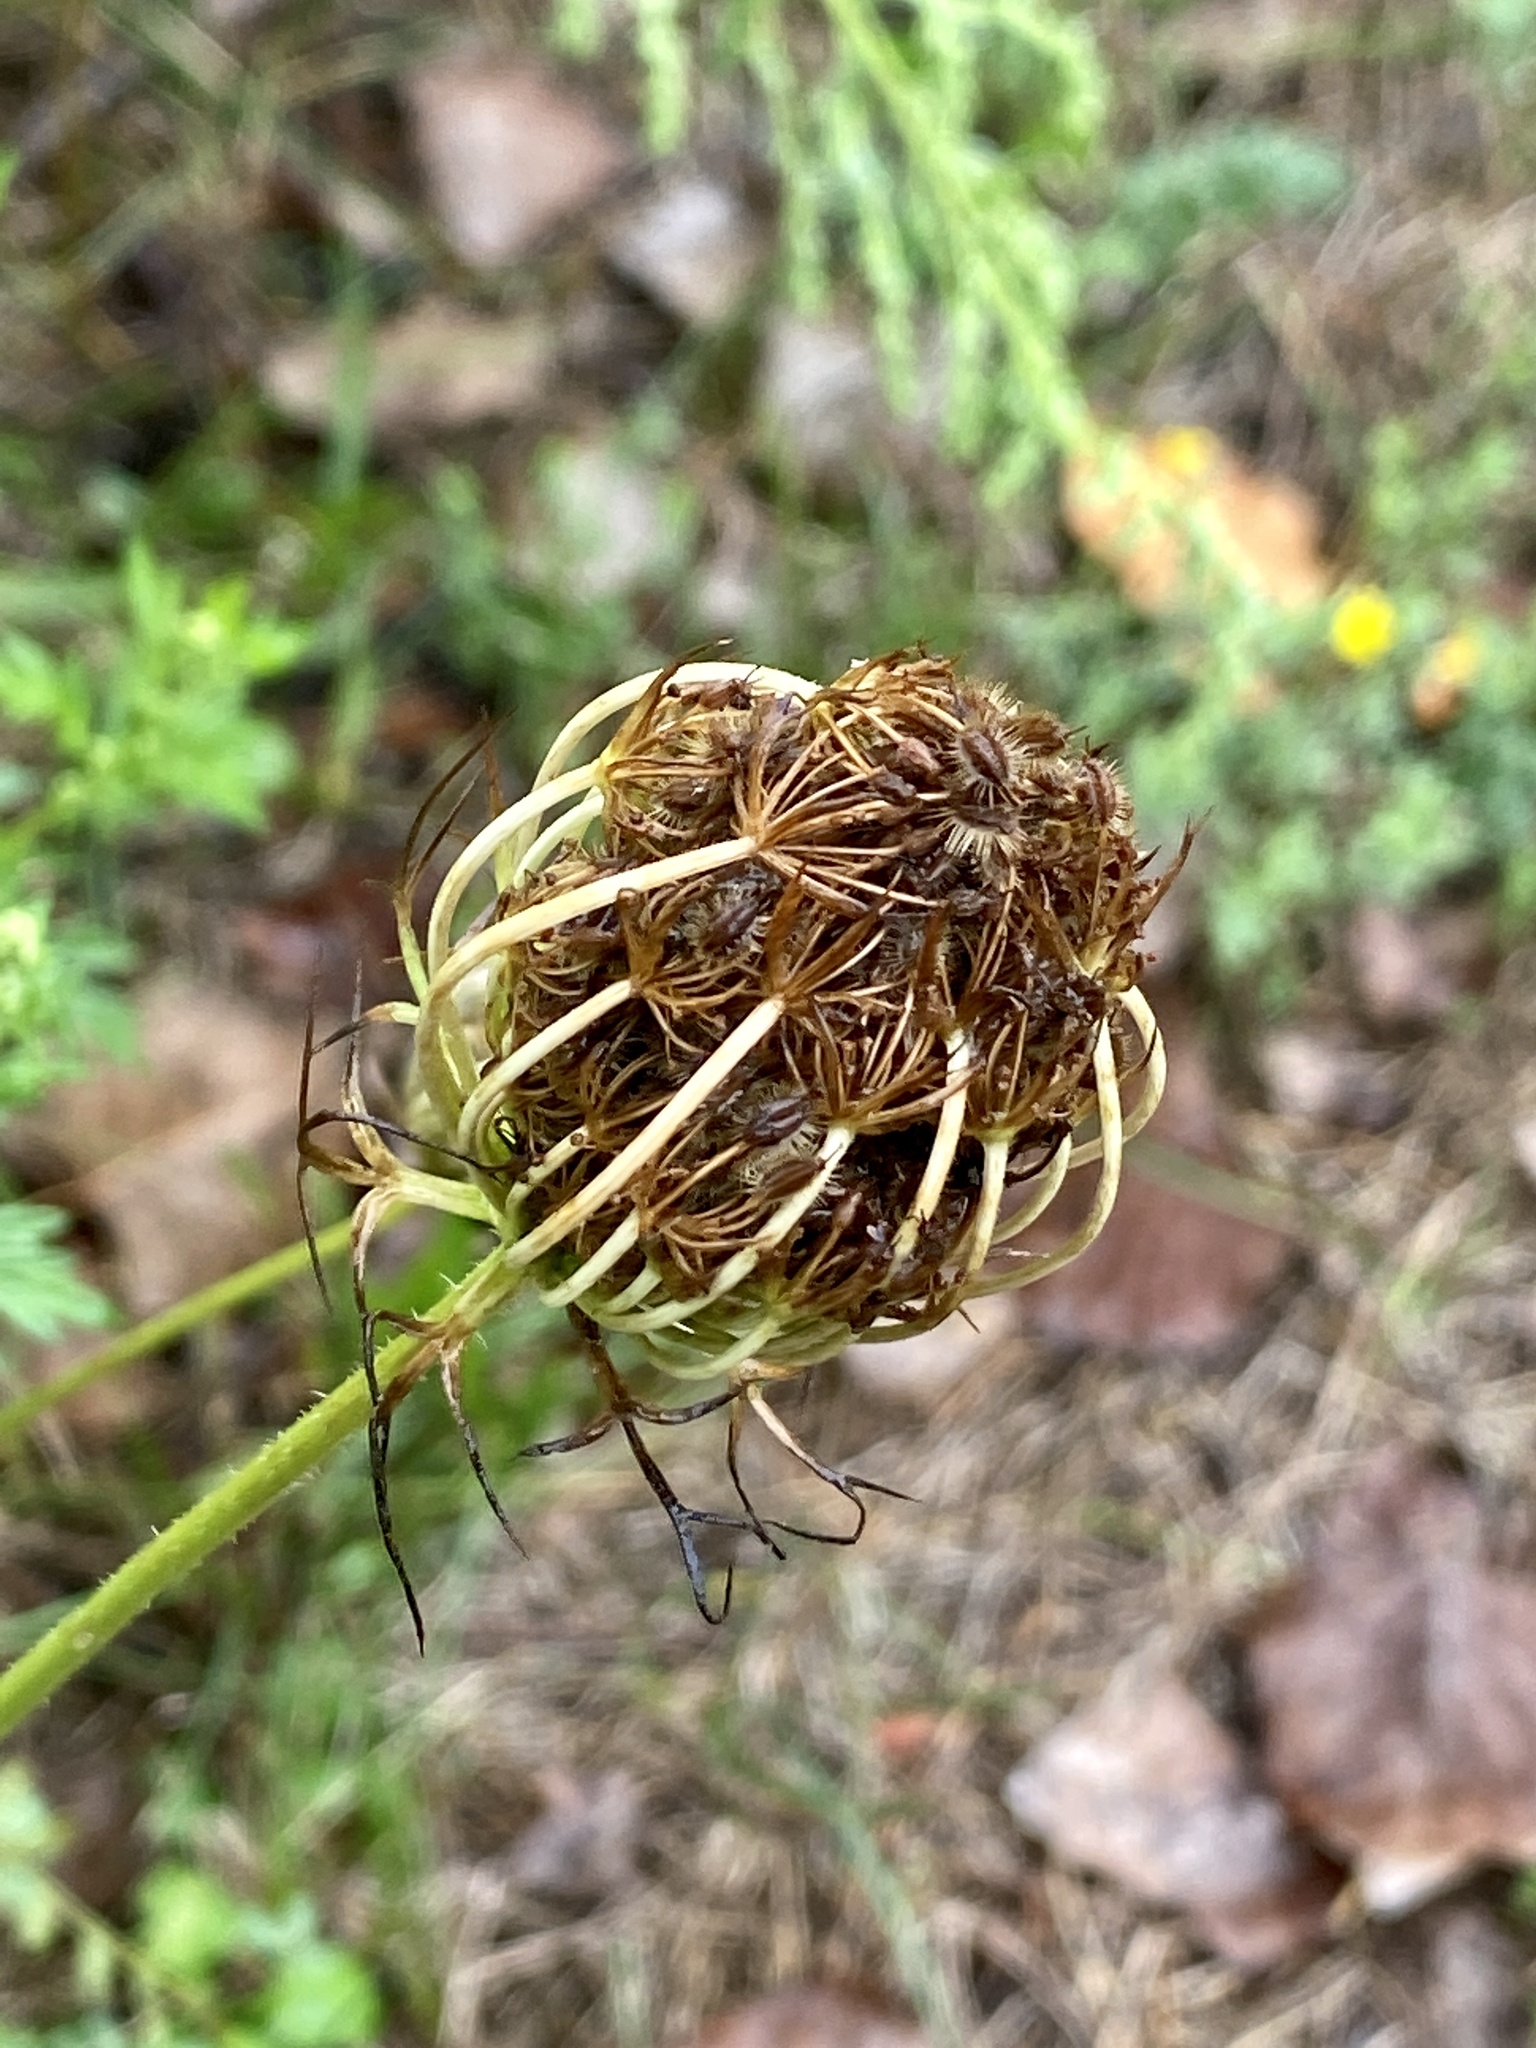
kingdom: Plantae
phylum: Tracheophyta
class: Magnoliopsida
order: Apiales
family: Apiaceae
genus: Daucus
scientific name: Daucus carota
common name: Wild carrot
